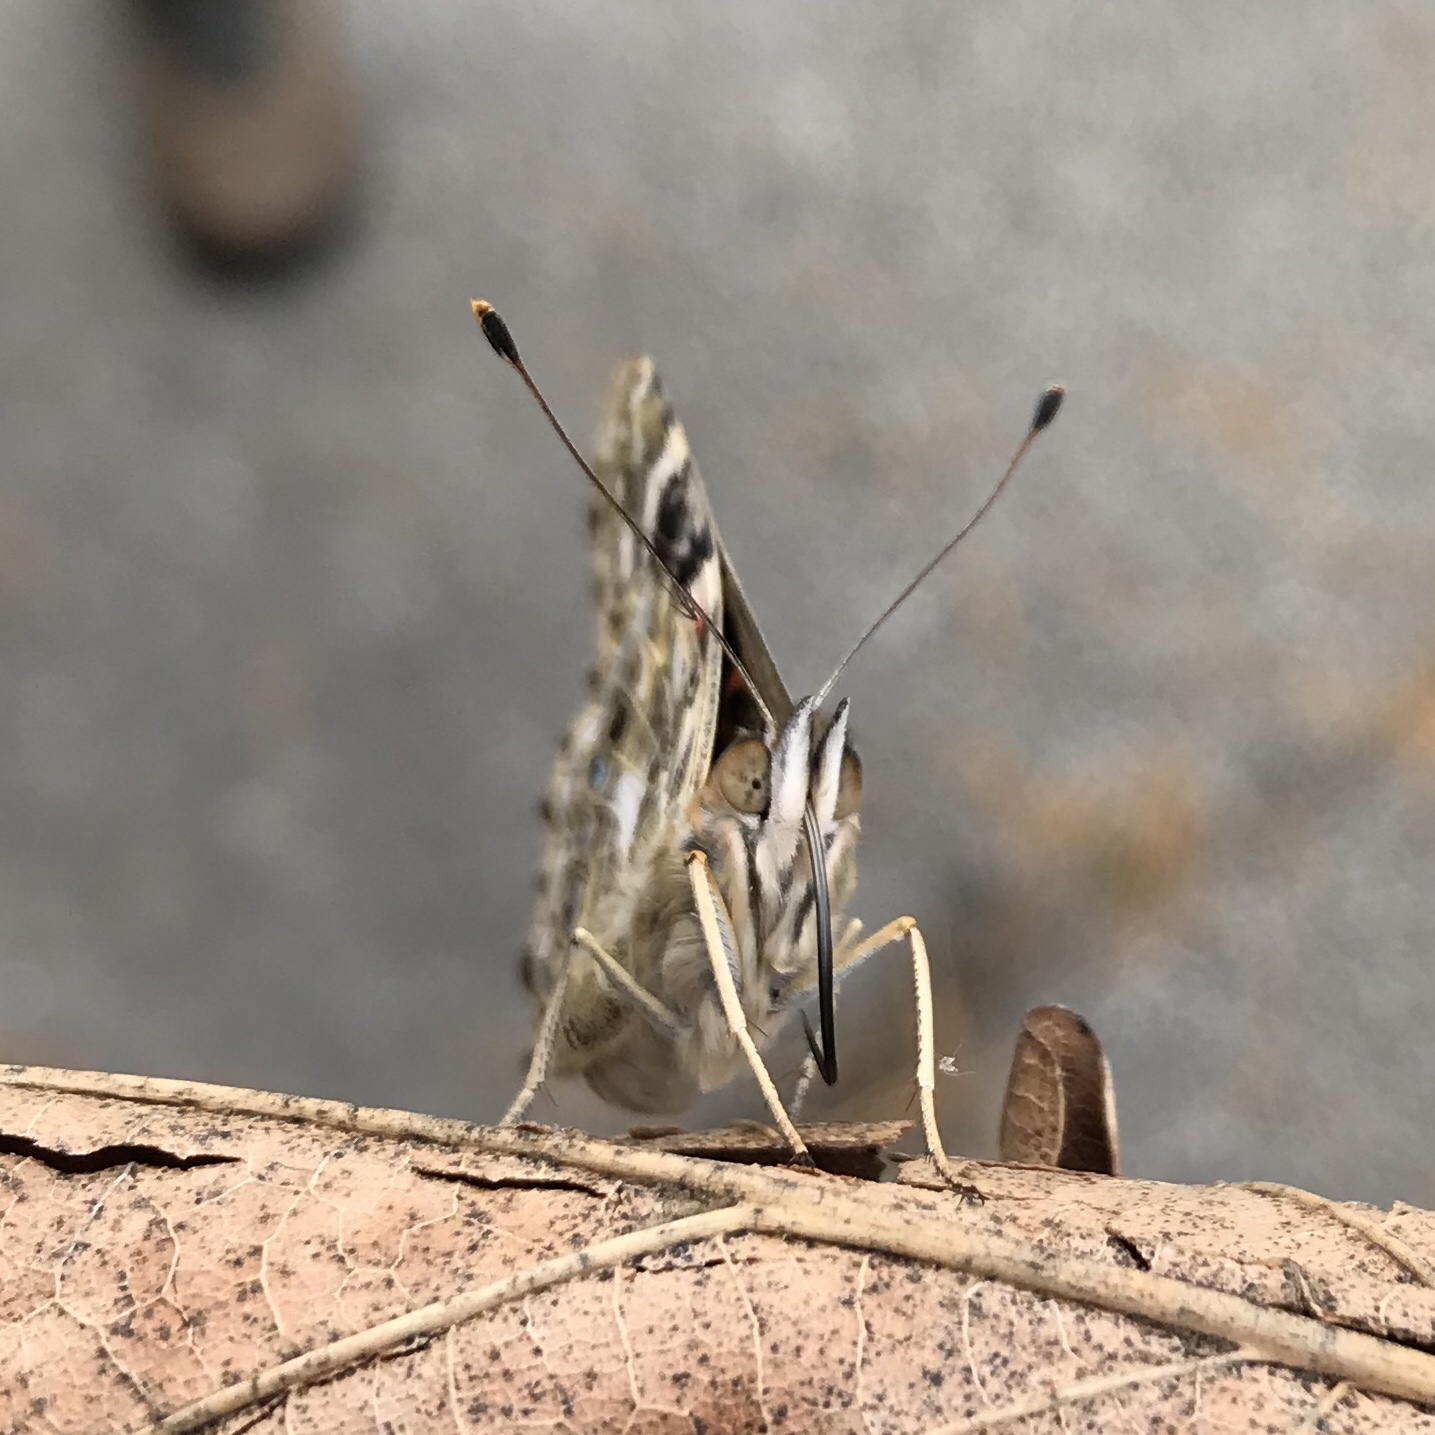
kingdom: Animalia
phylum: Arthropoda
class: Insecta
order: Lepidoptera
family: Nymphalidae
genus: Vanessa
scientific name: Vanessa cardui
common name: Painted lady
